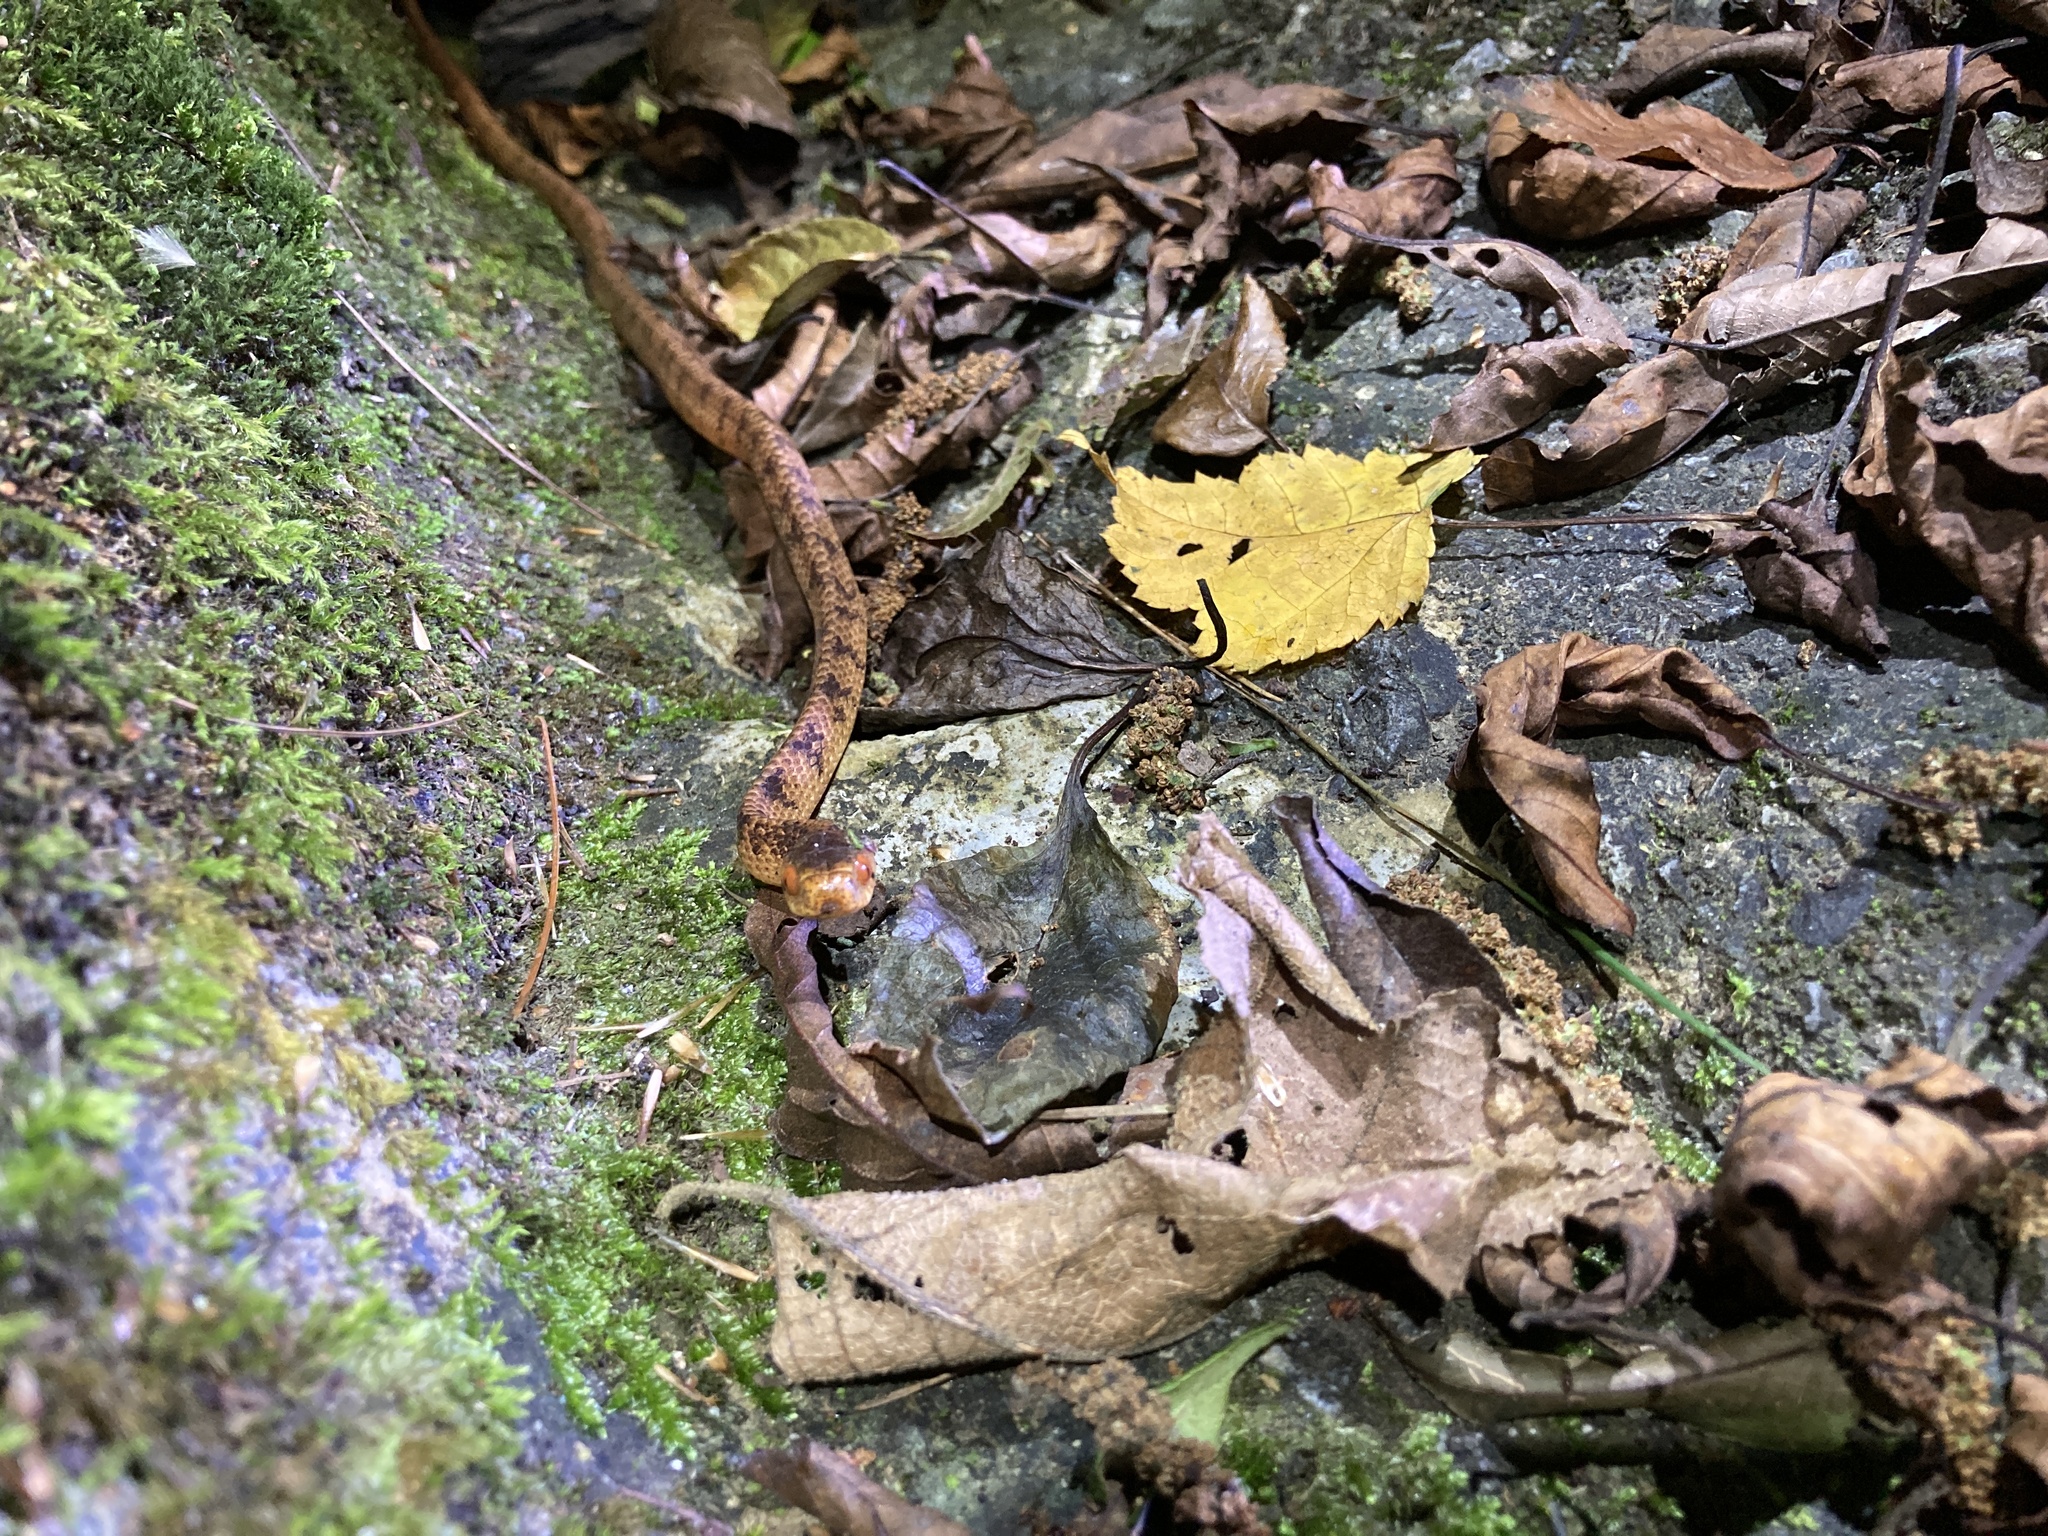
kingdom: Animalia
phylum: Chordata
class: Squamata
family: Pareidae
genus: Pareas
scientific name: Pareas formosensis
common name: Formosa slug snake
